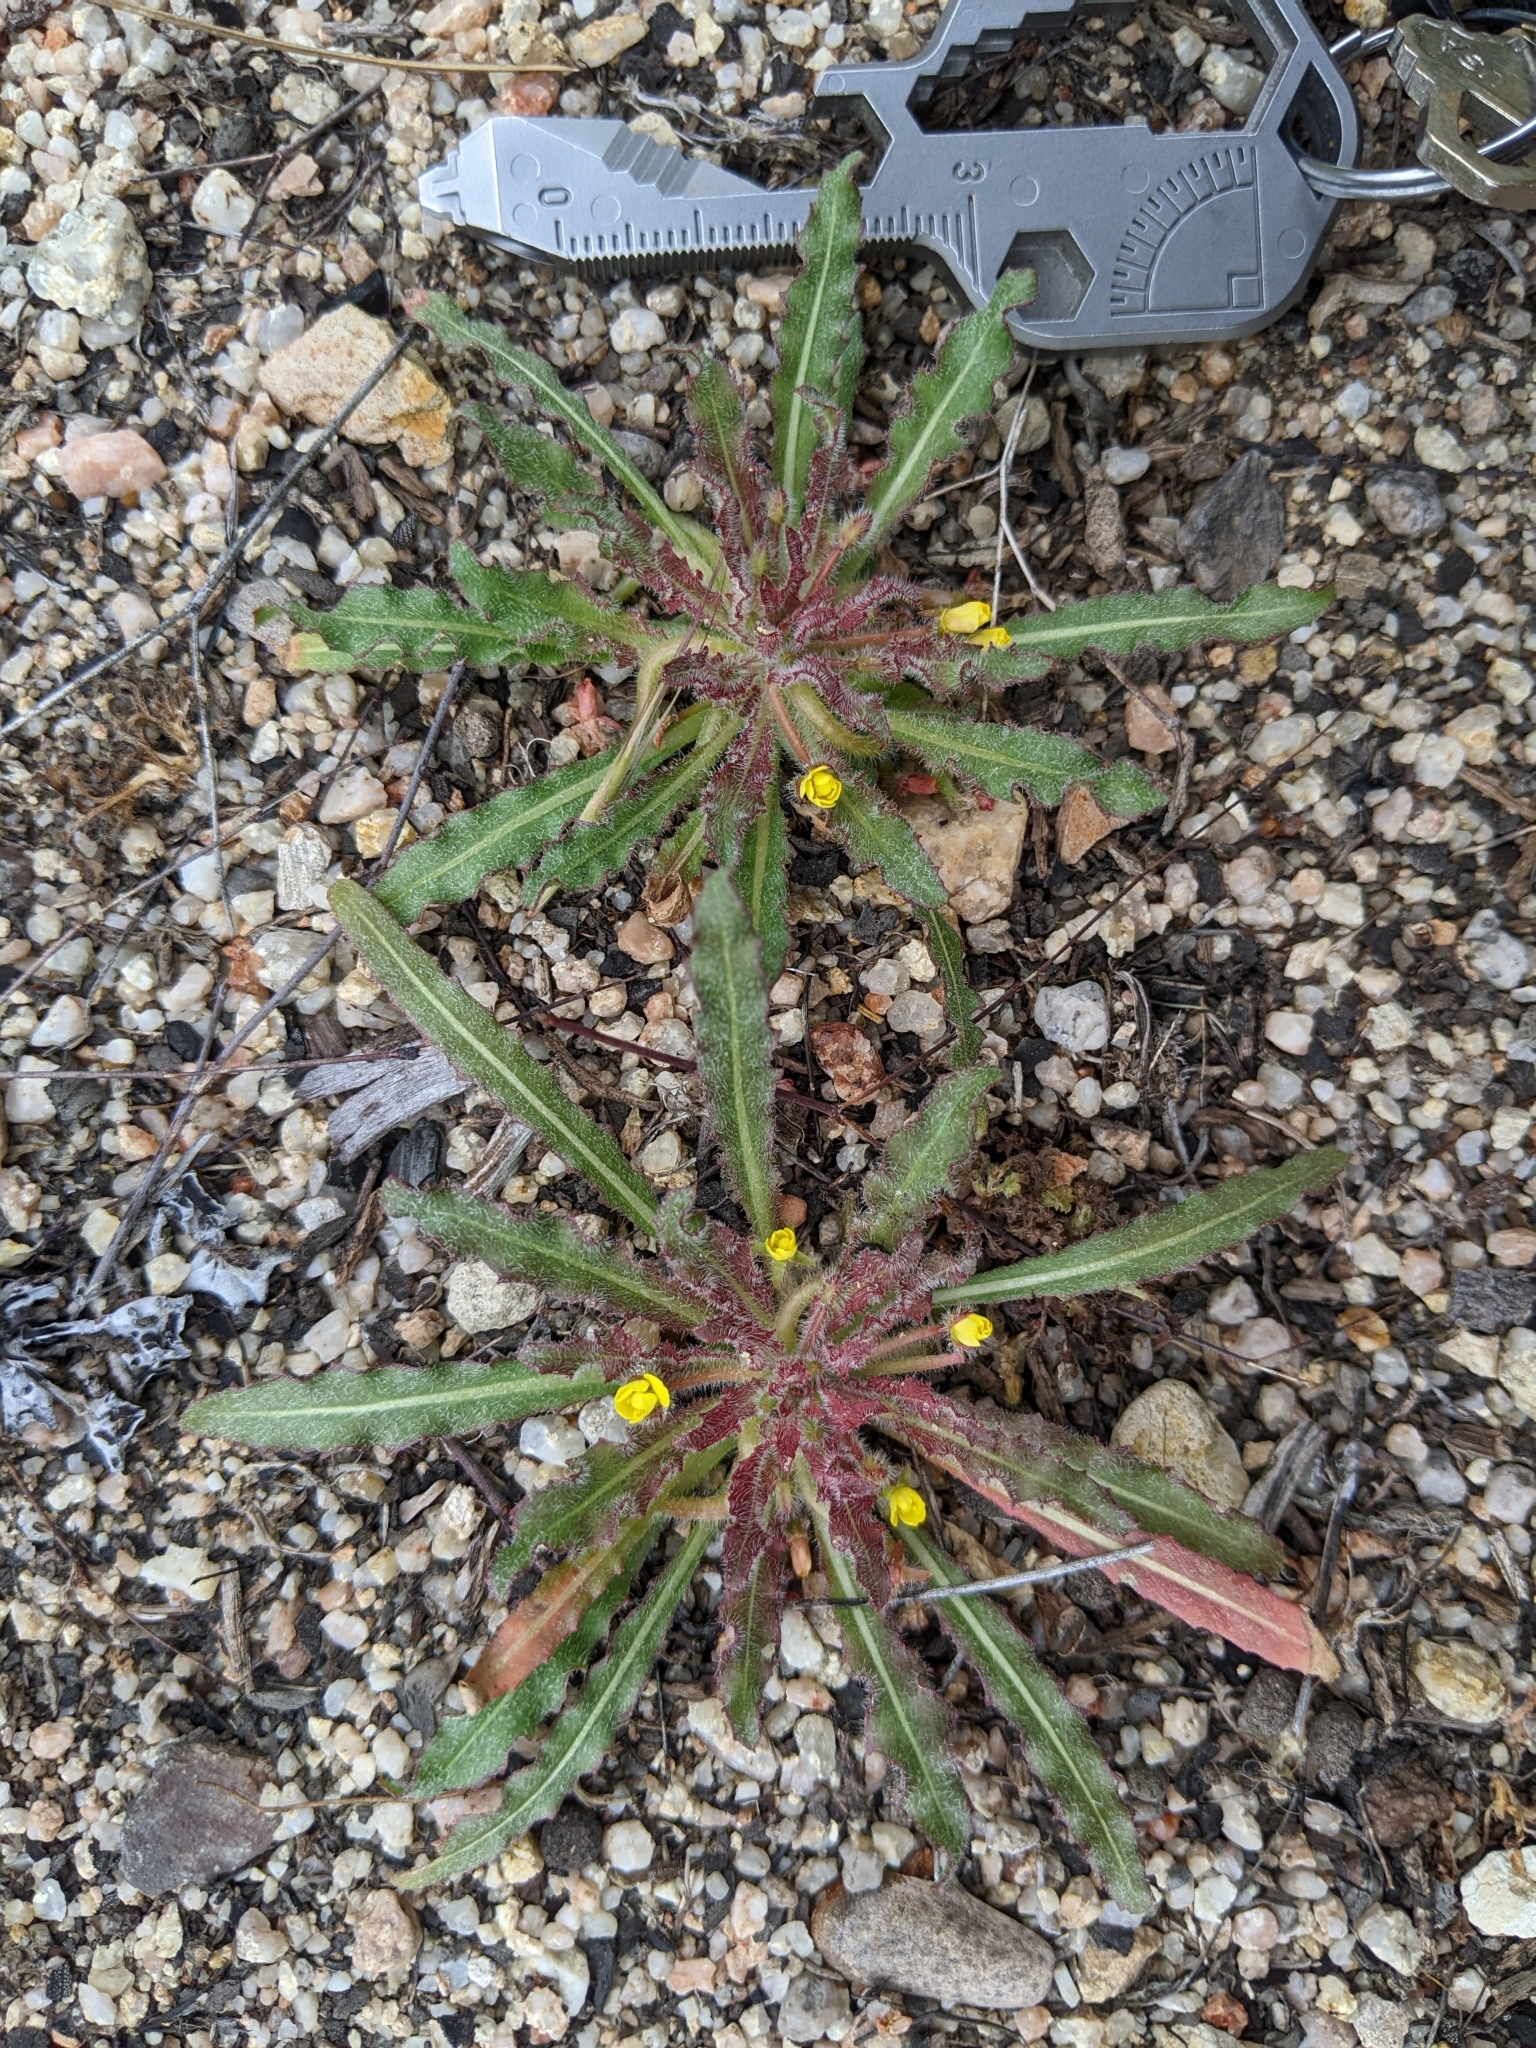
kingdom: Plantae
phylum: Tracheophyta
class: Magnoliopsida
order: Myrtales
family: Onagraceae
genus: Camissoniopsis
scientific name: Camissoniopsis micrantha
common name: Miniature suncup
